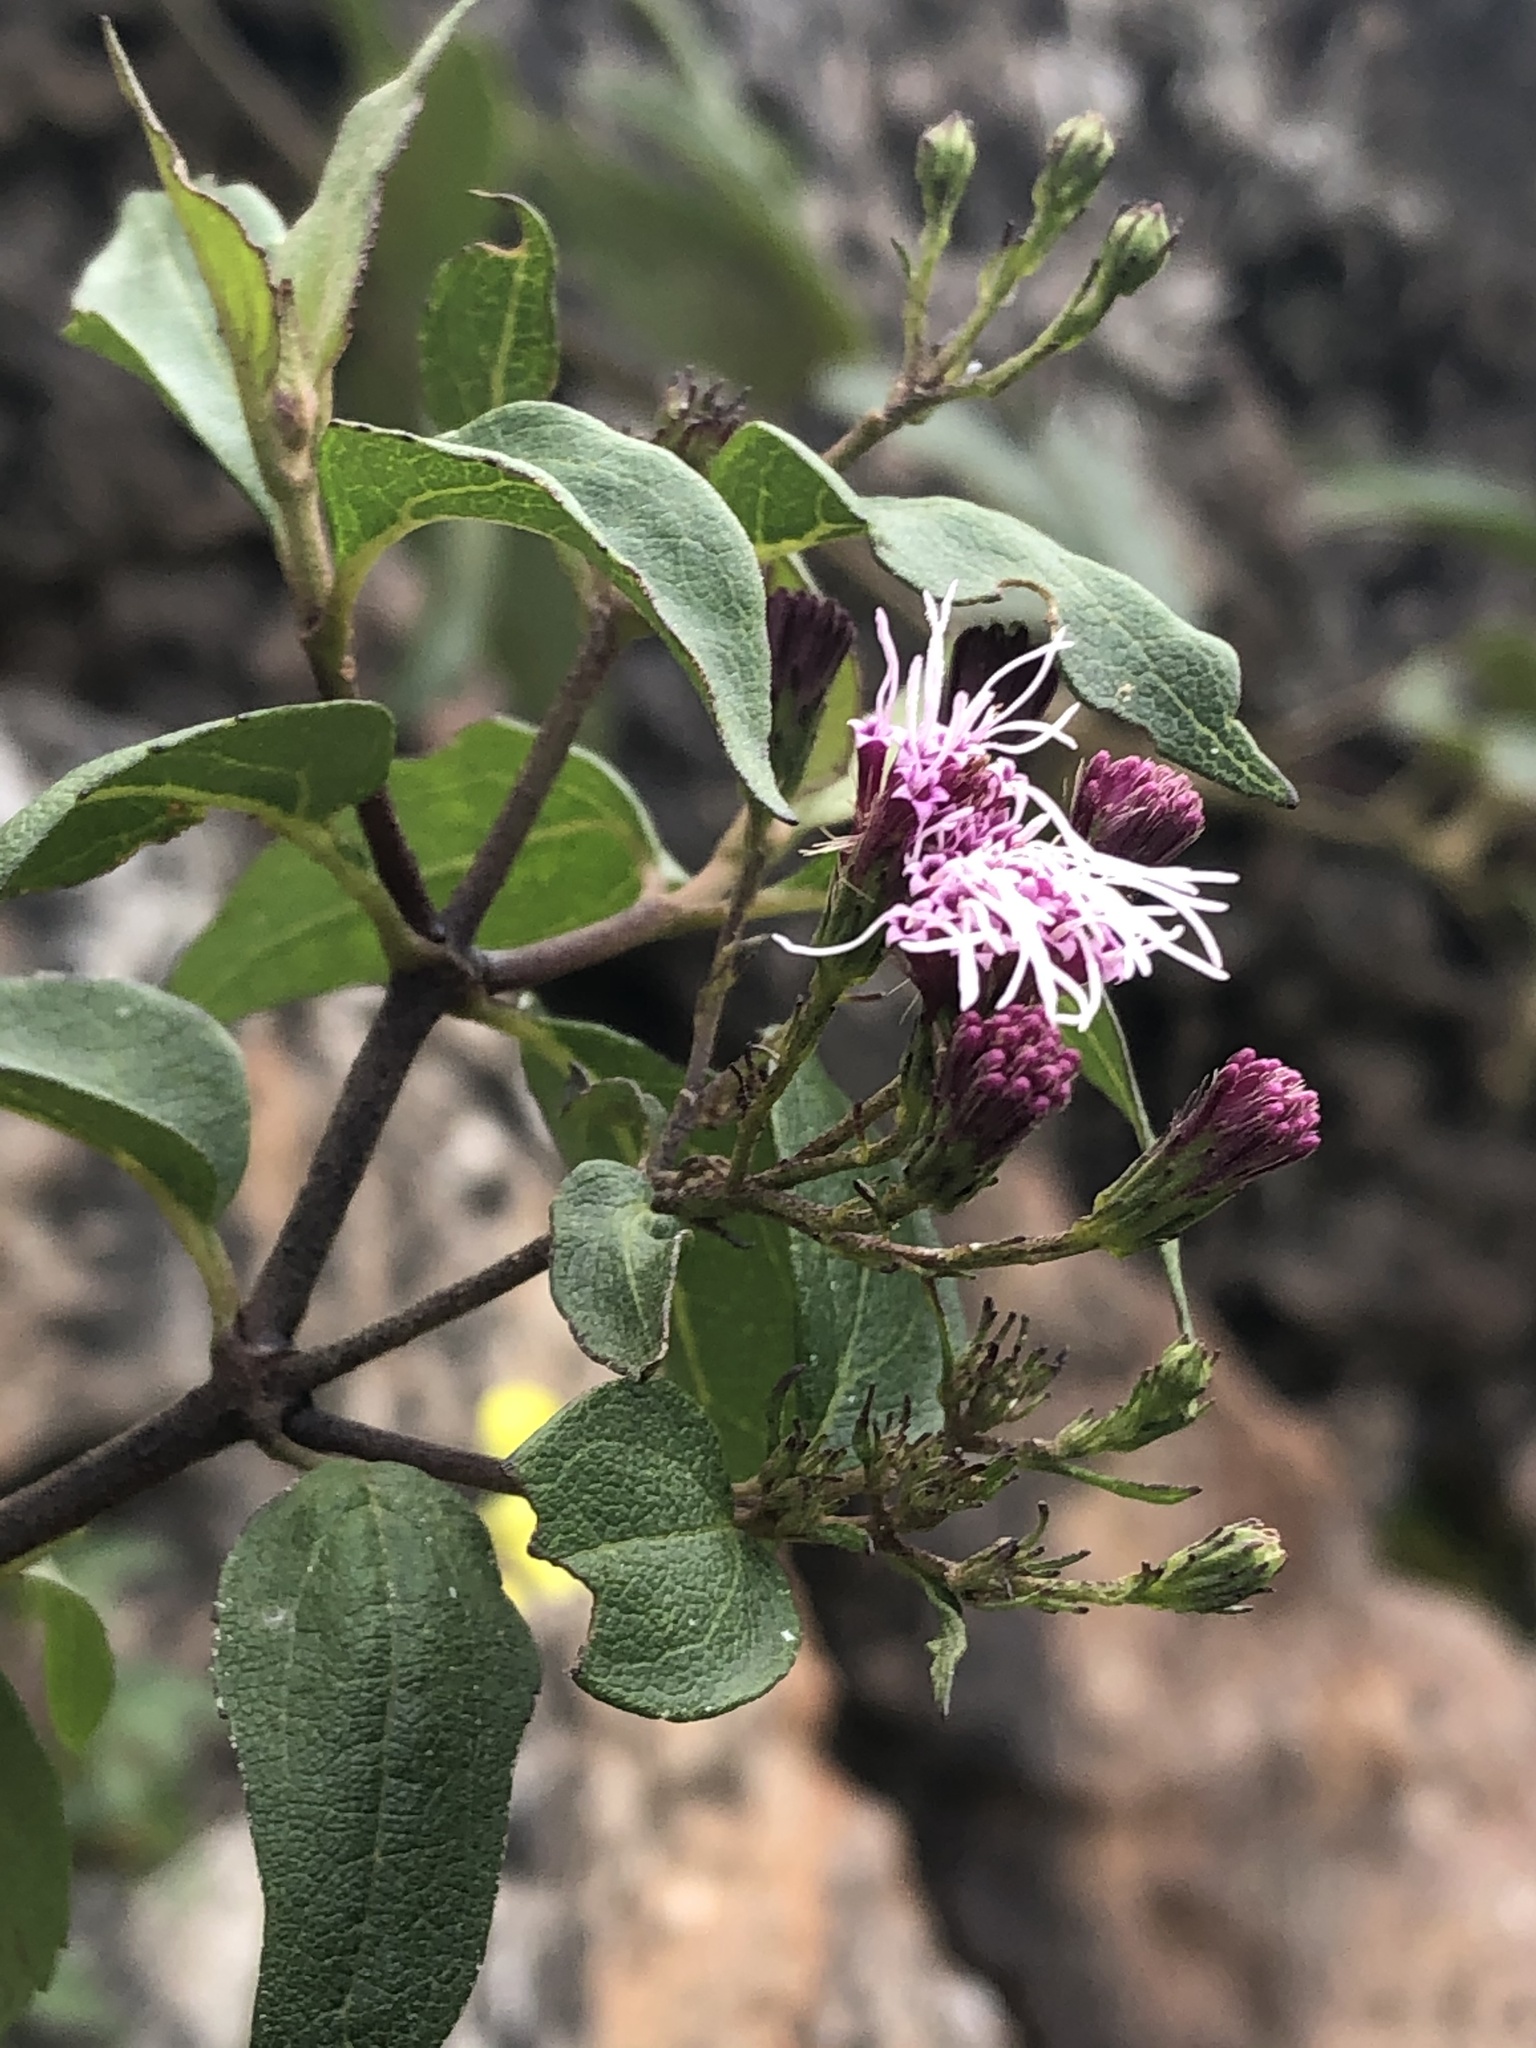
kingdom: Plantae
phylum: Tracheophyta
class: Magnoliopsida
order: Asterales
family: Asteraceae
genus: Ageratina
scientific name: Ageratina pentlandiana
